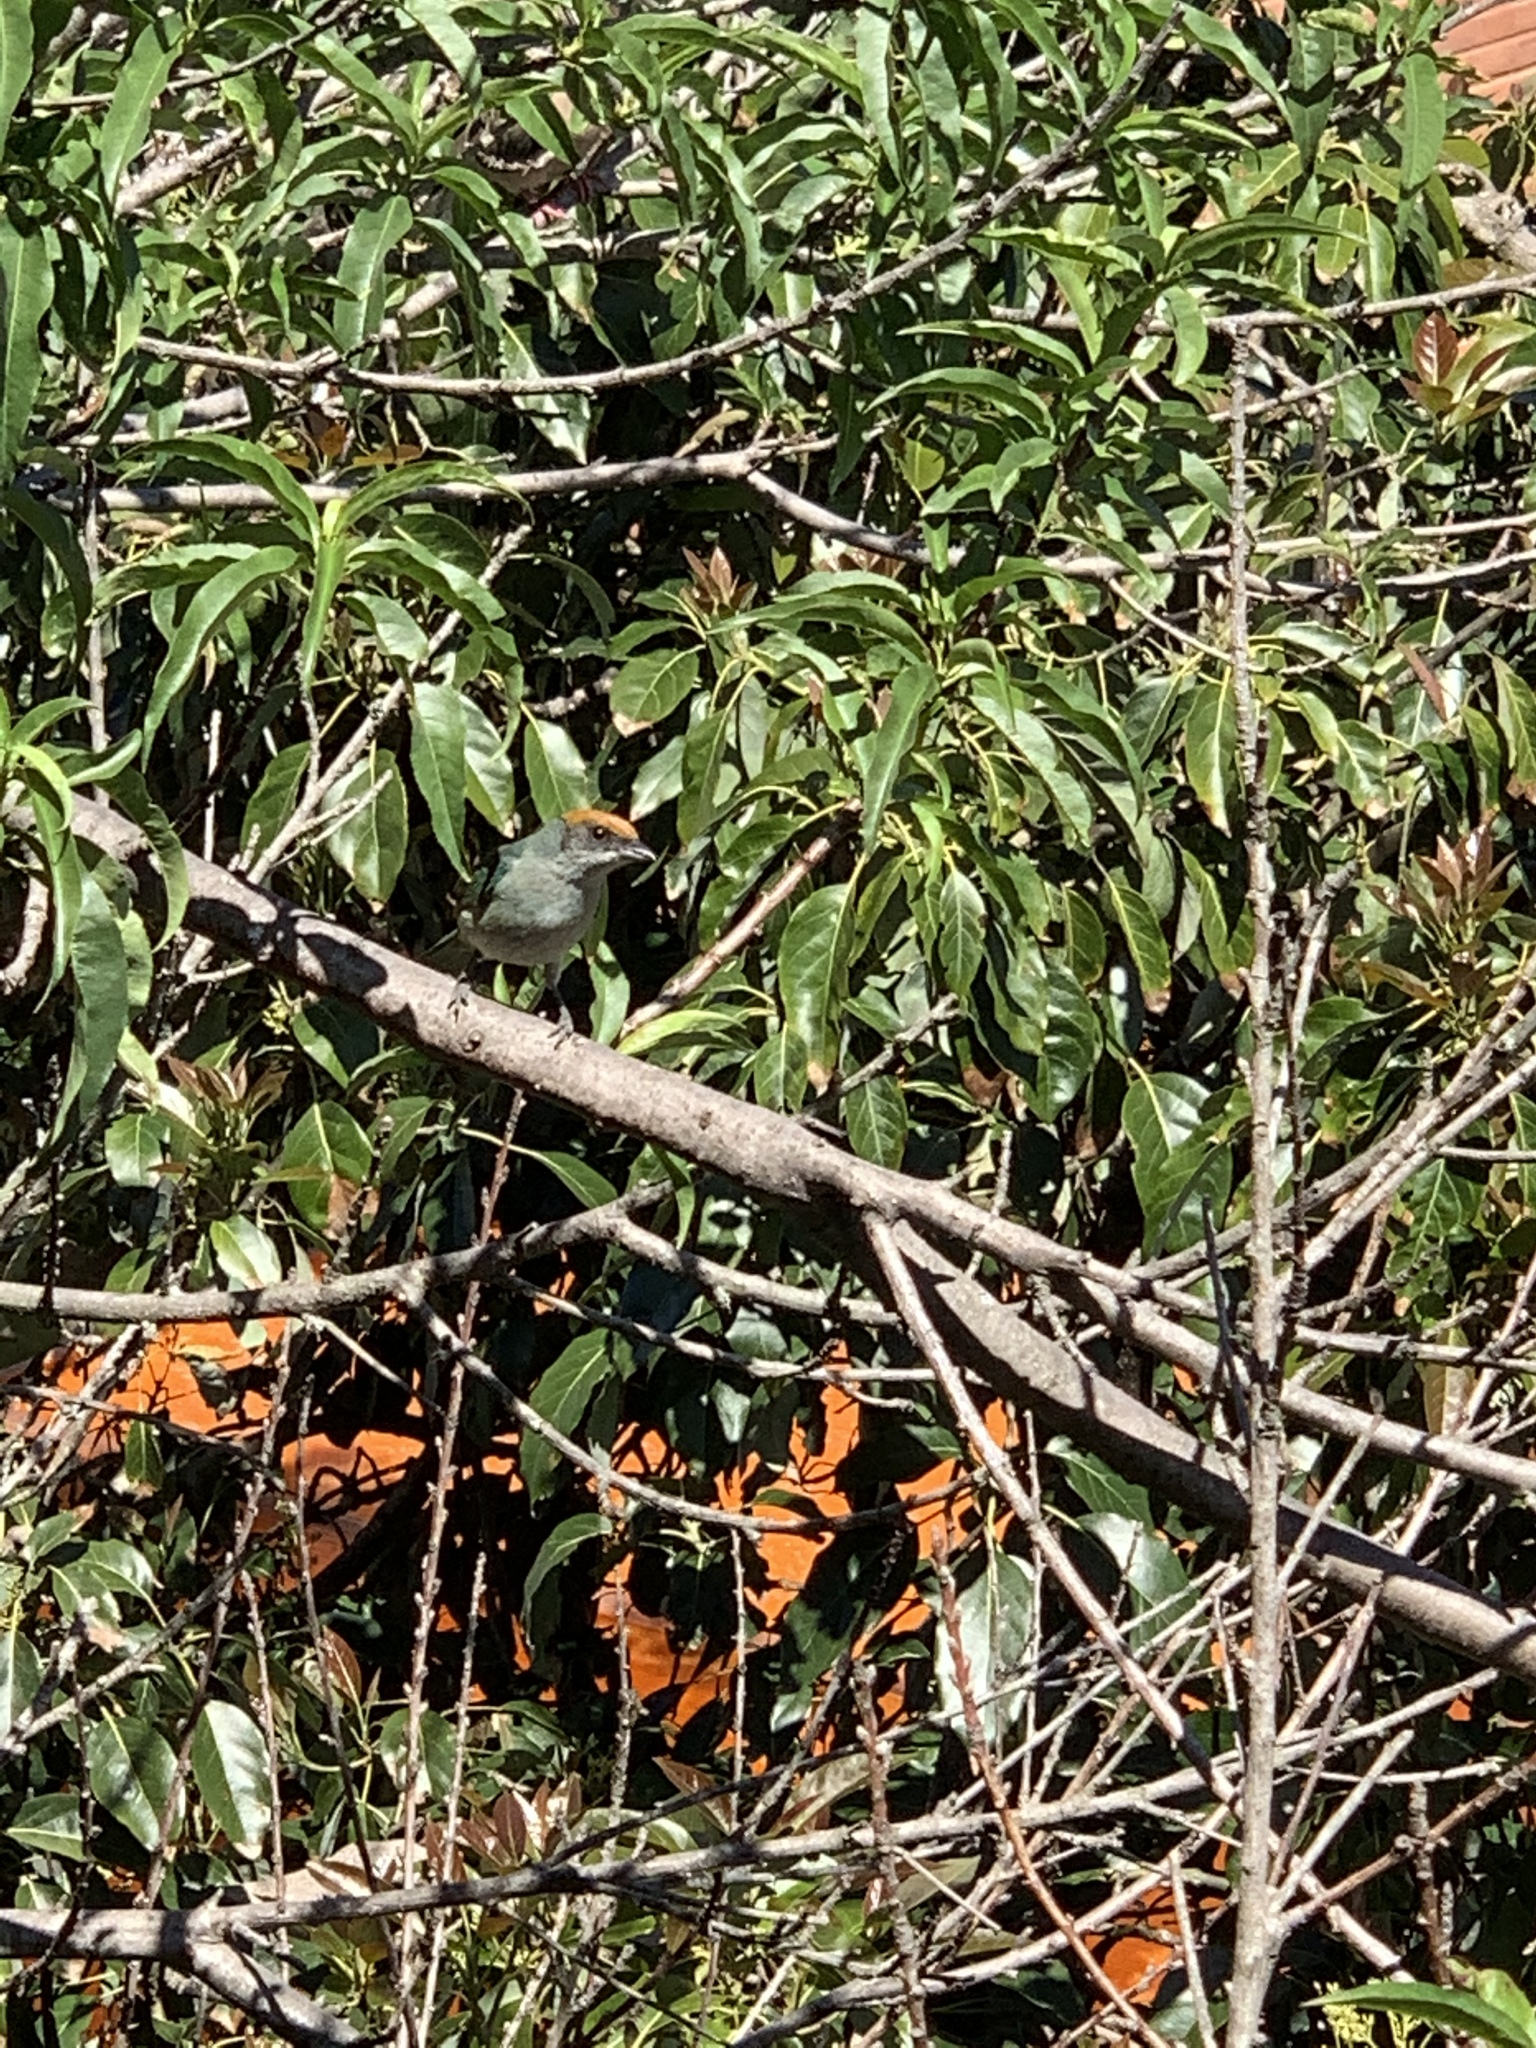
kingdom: Animalia
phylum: Chordata
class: Aves
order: Passeriformes
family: Thraupidae
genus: Stilpnia
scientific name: Stilpnia vitriolina
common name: Scrub tanager
